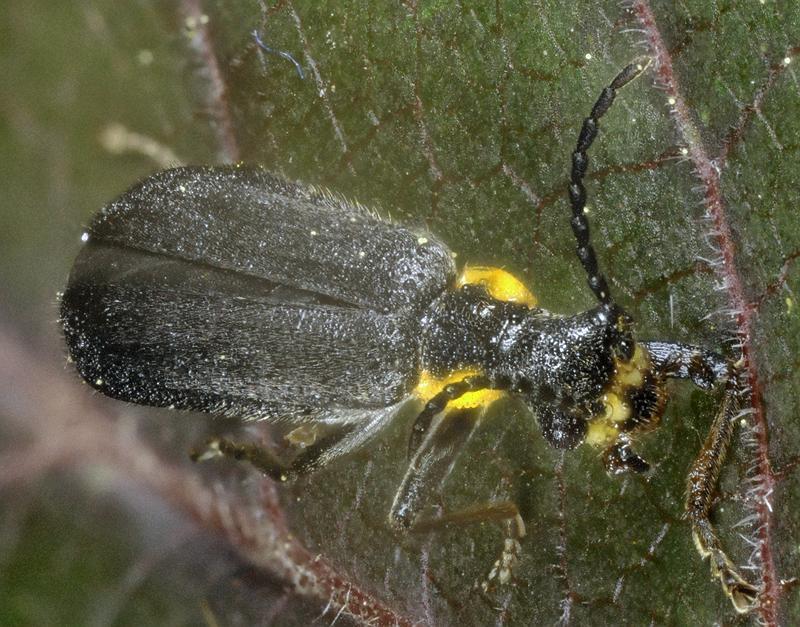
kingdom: Animalia
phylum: Arthropoda
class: Insecta
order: Coleoptera
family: Cantharidae
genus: Podabrus
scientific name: Podabrus rugosulus
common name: Wrinkled soldier beetle
